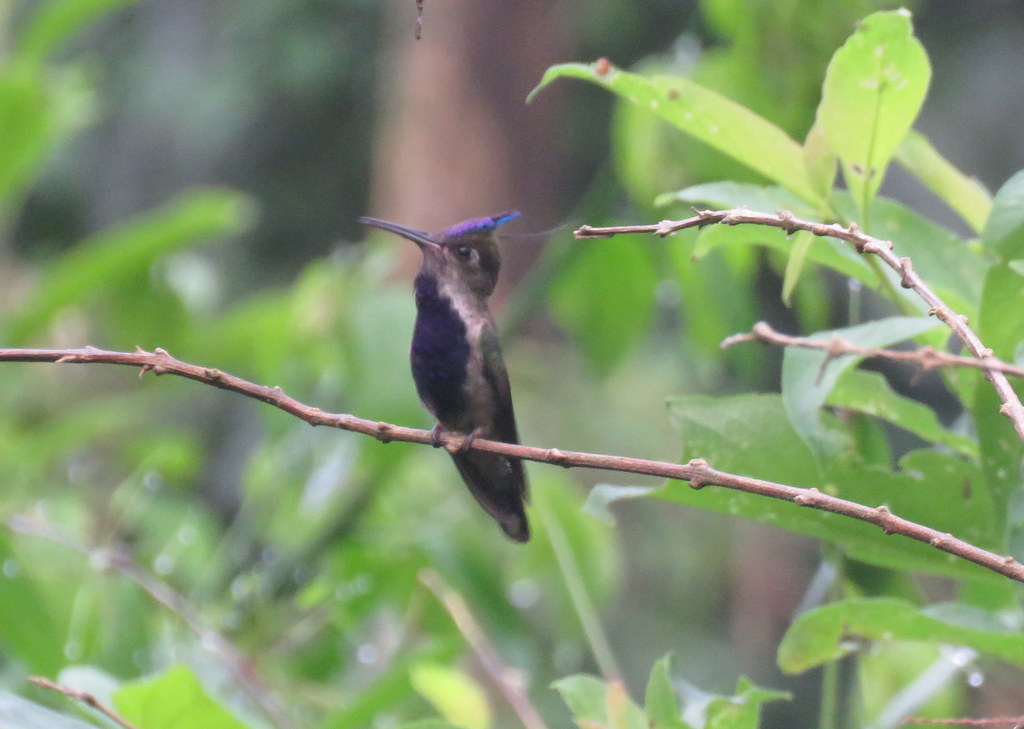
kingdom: Animalia
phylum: Chordata
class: Aves
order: Apodiformes
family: Trochilidae
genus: Stephanoxis
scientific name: Stephanoxis loddigesii
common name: Purple-crowned plovercrest
